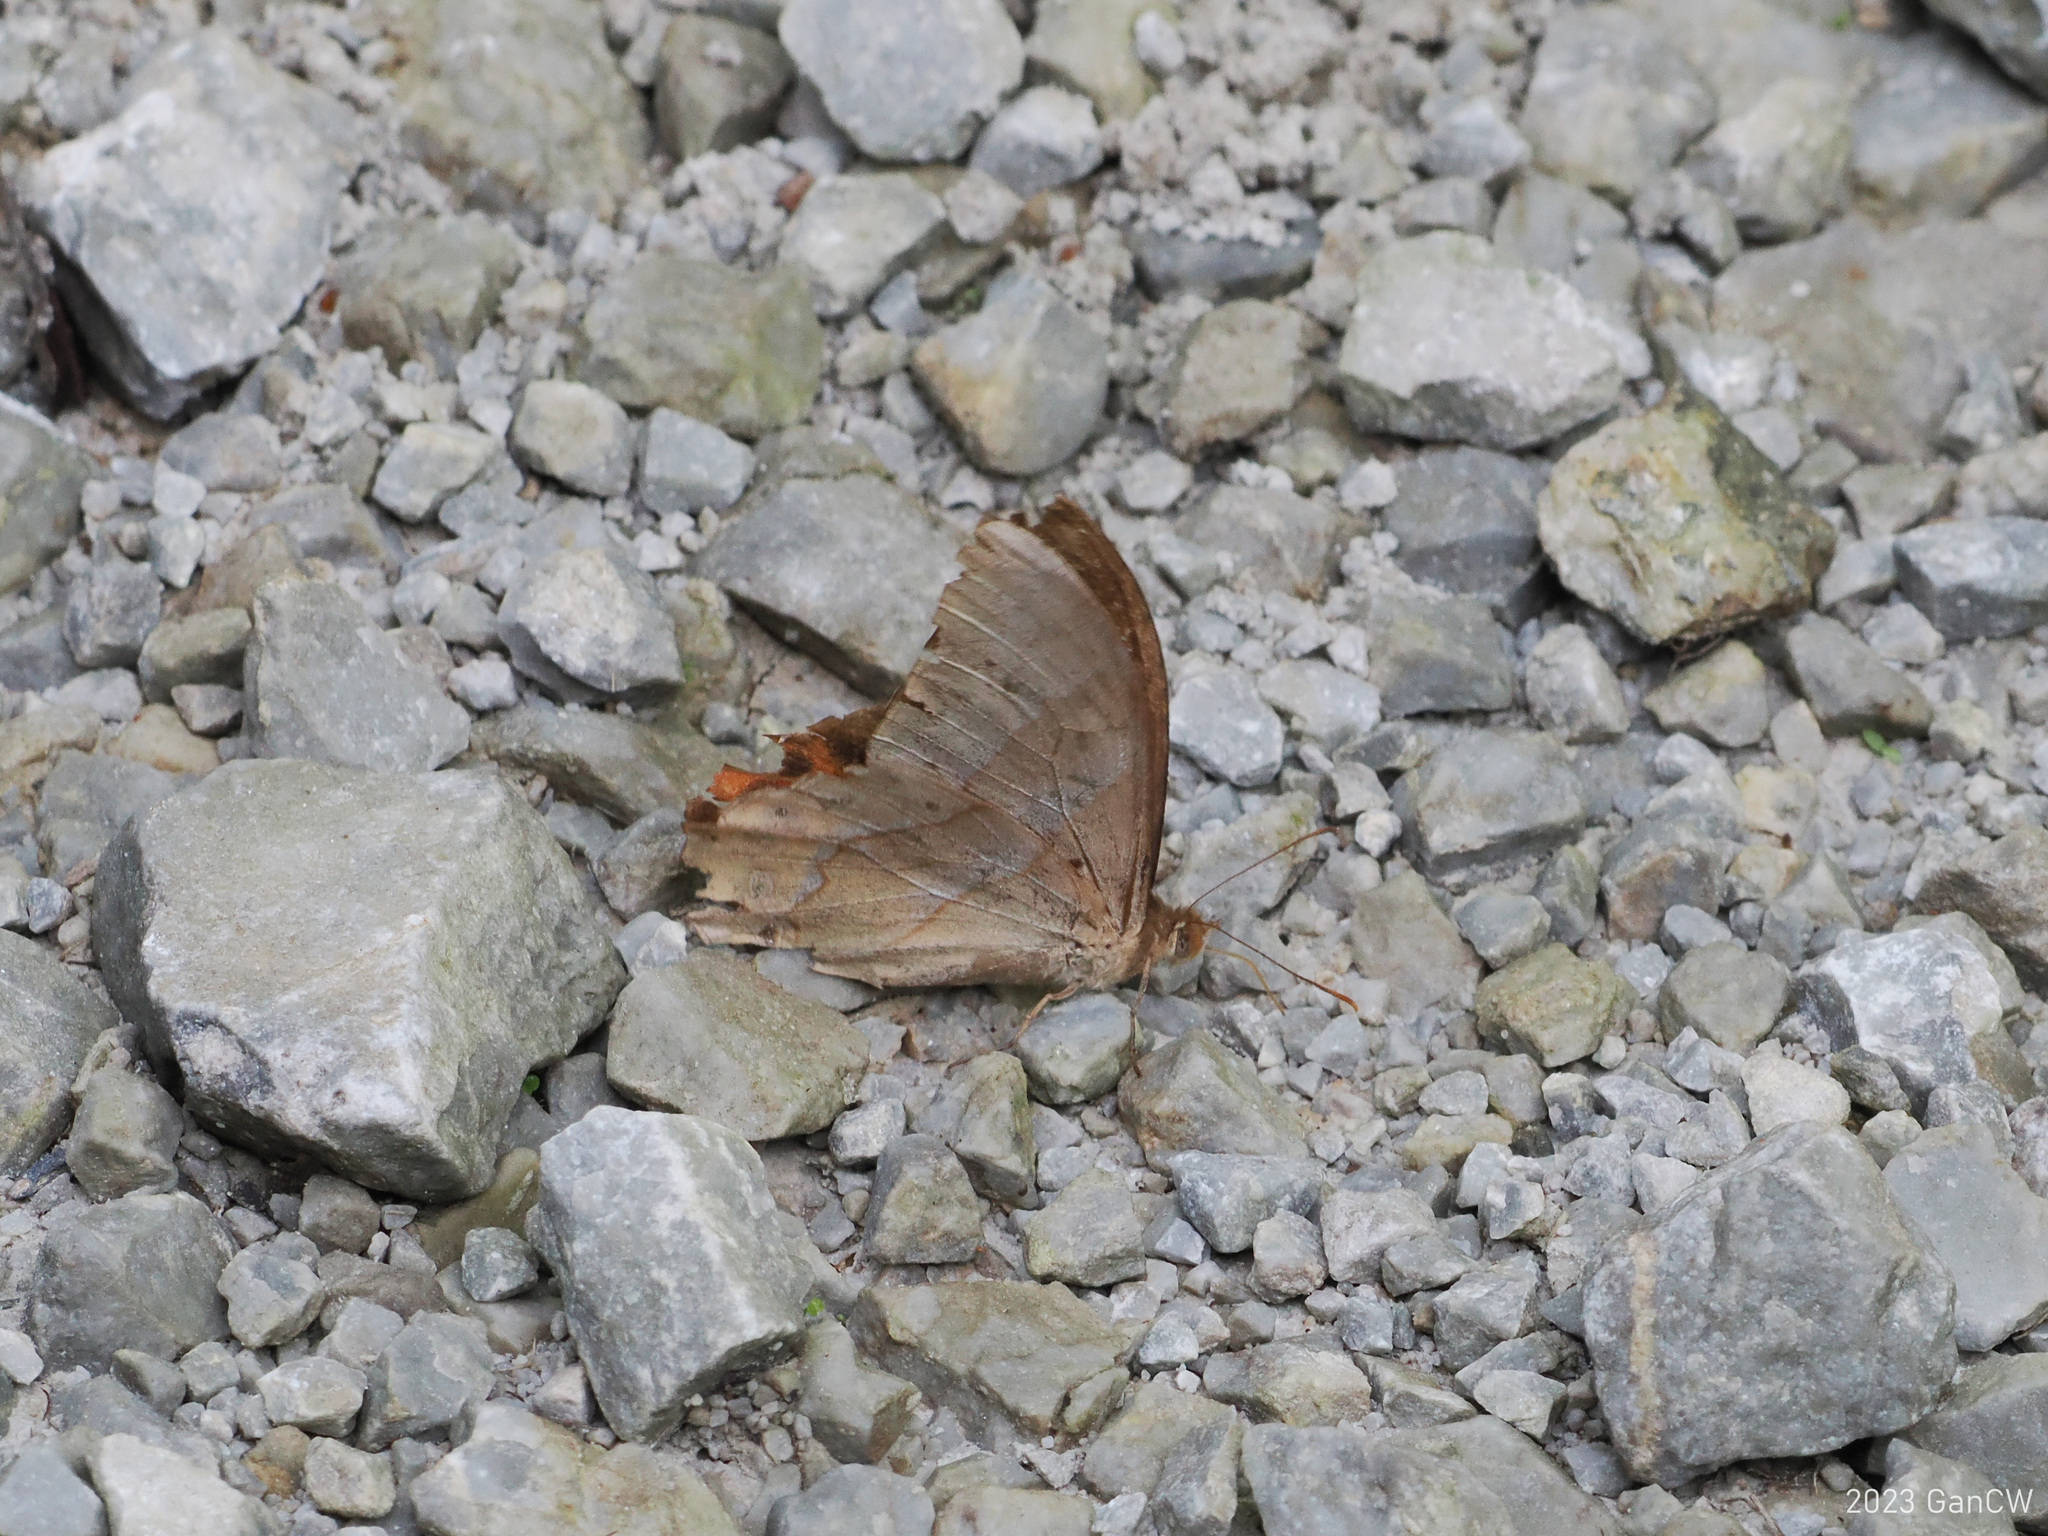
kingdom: Animalia
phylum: Arthropoda
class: Insecta
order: Lepidoptera
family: Nymphalidae
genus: Lethe
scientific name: Lethe mekara
